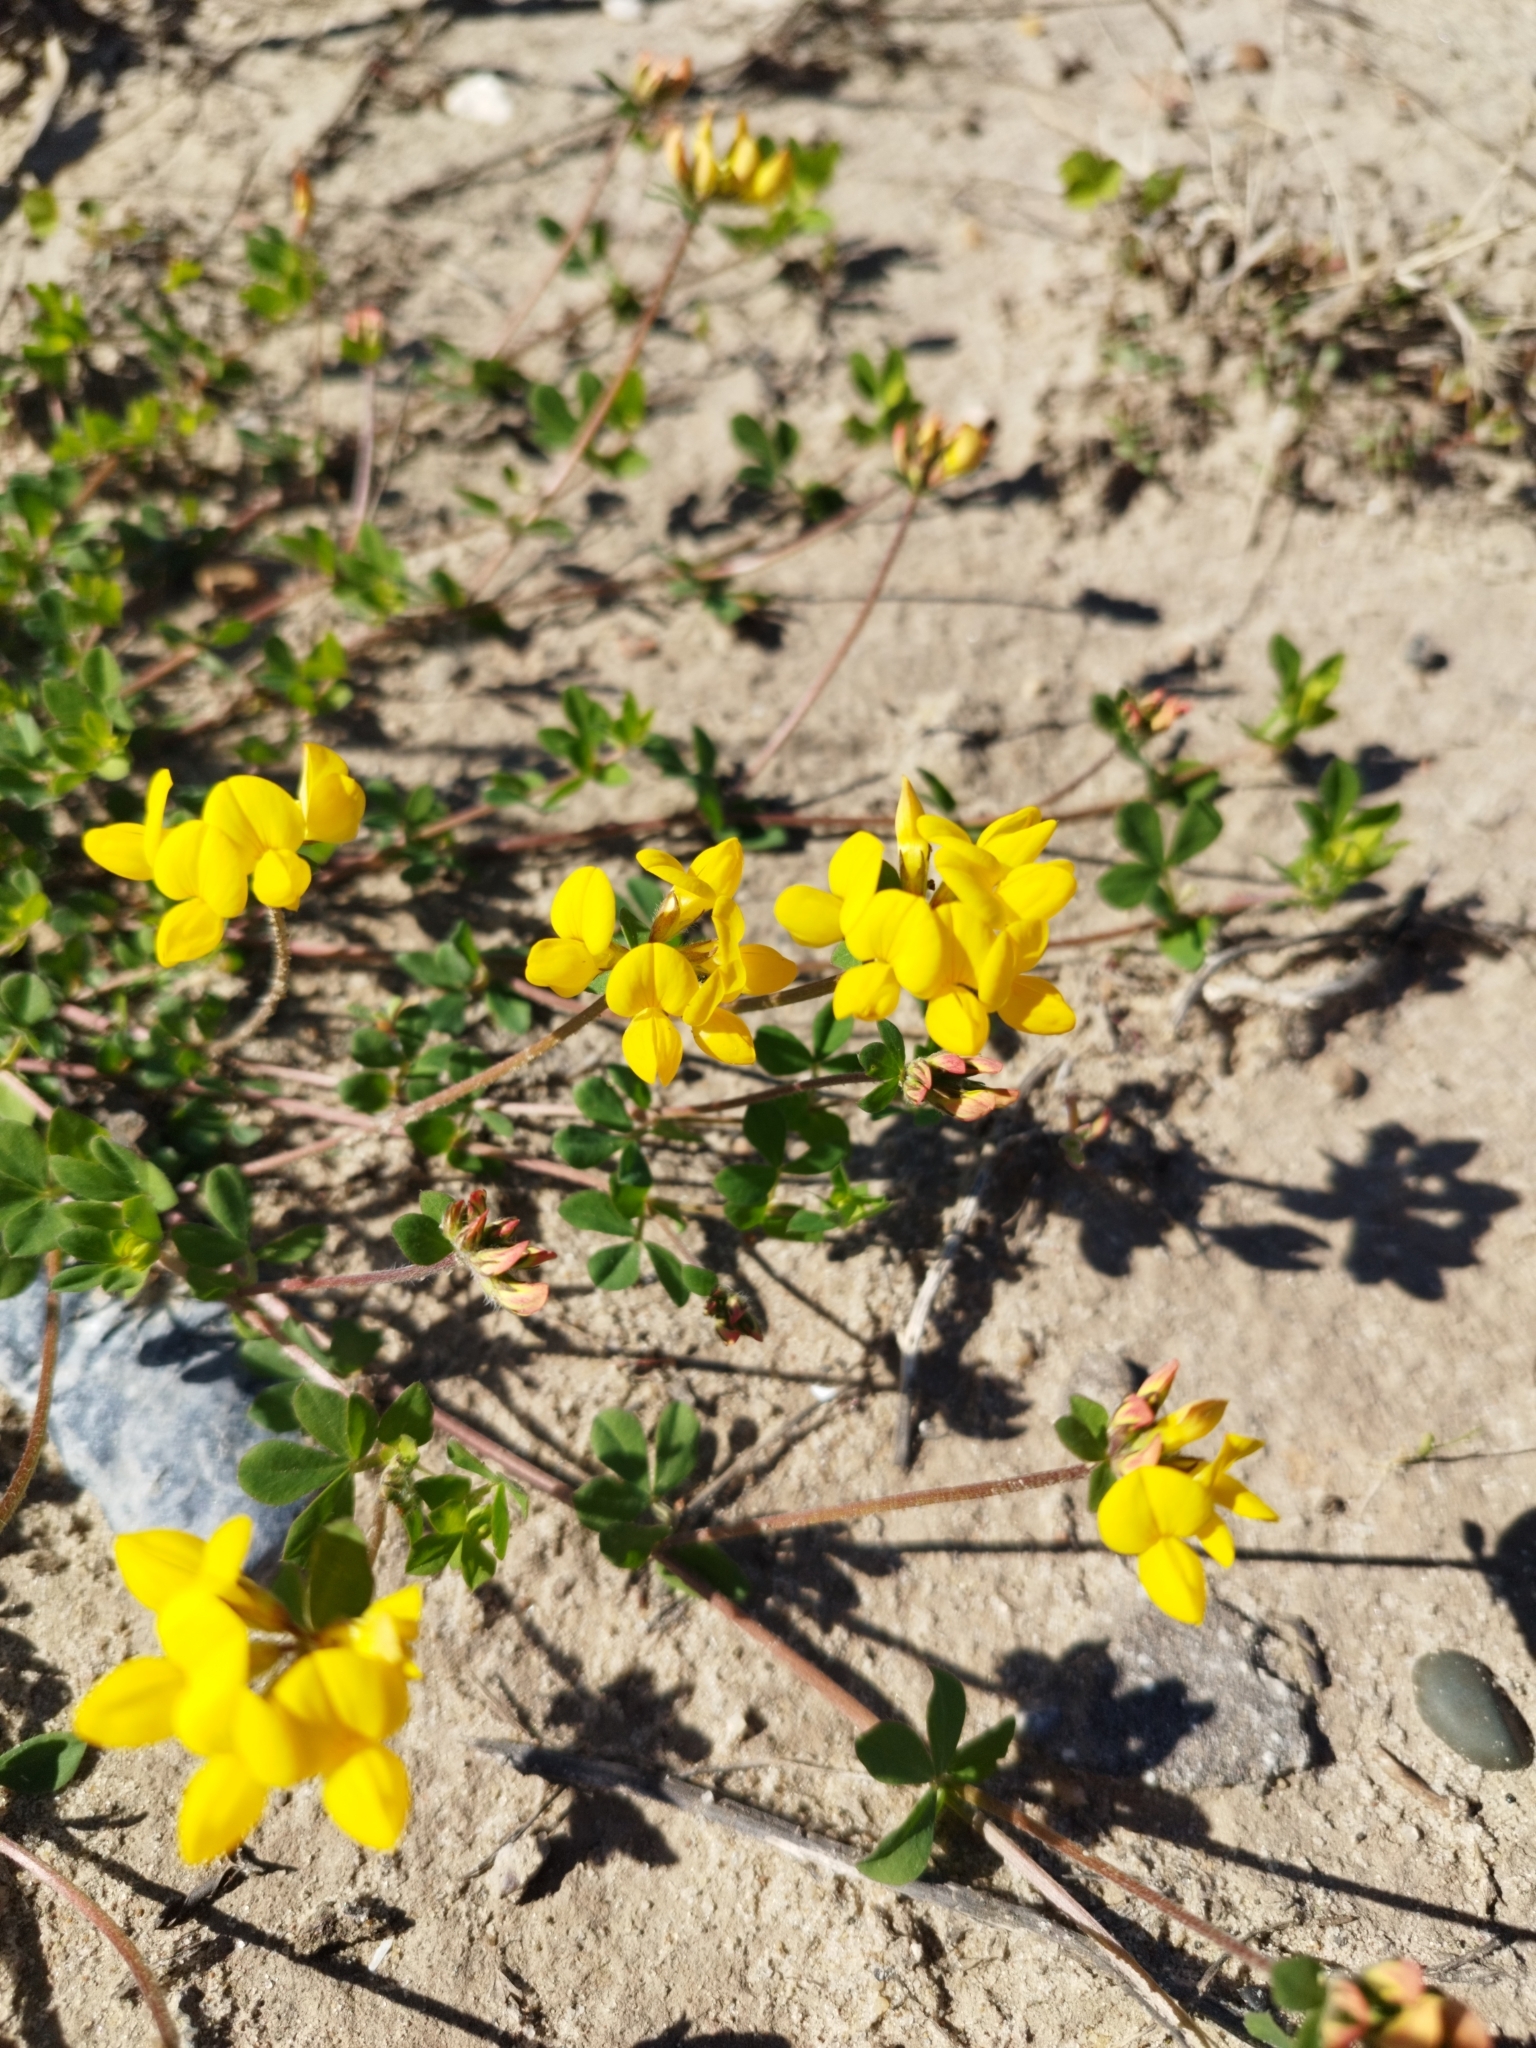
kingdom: Plantae
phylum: Tracheophyta
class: Magnoliopsida
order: Fabales
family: Fabaceae
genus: Lotus
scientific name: Lotus corniculatus
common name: Common bird's-foot-trefoil
